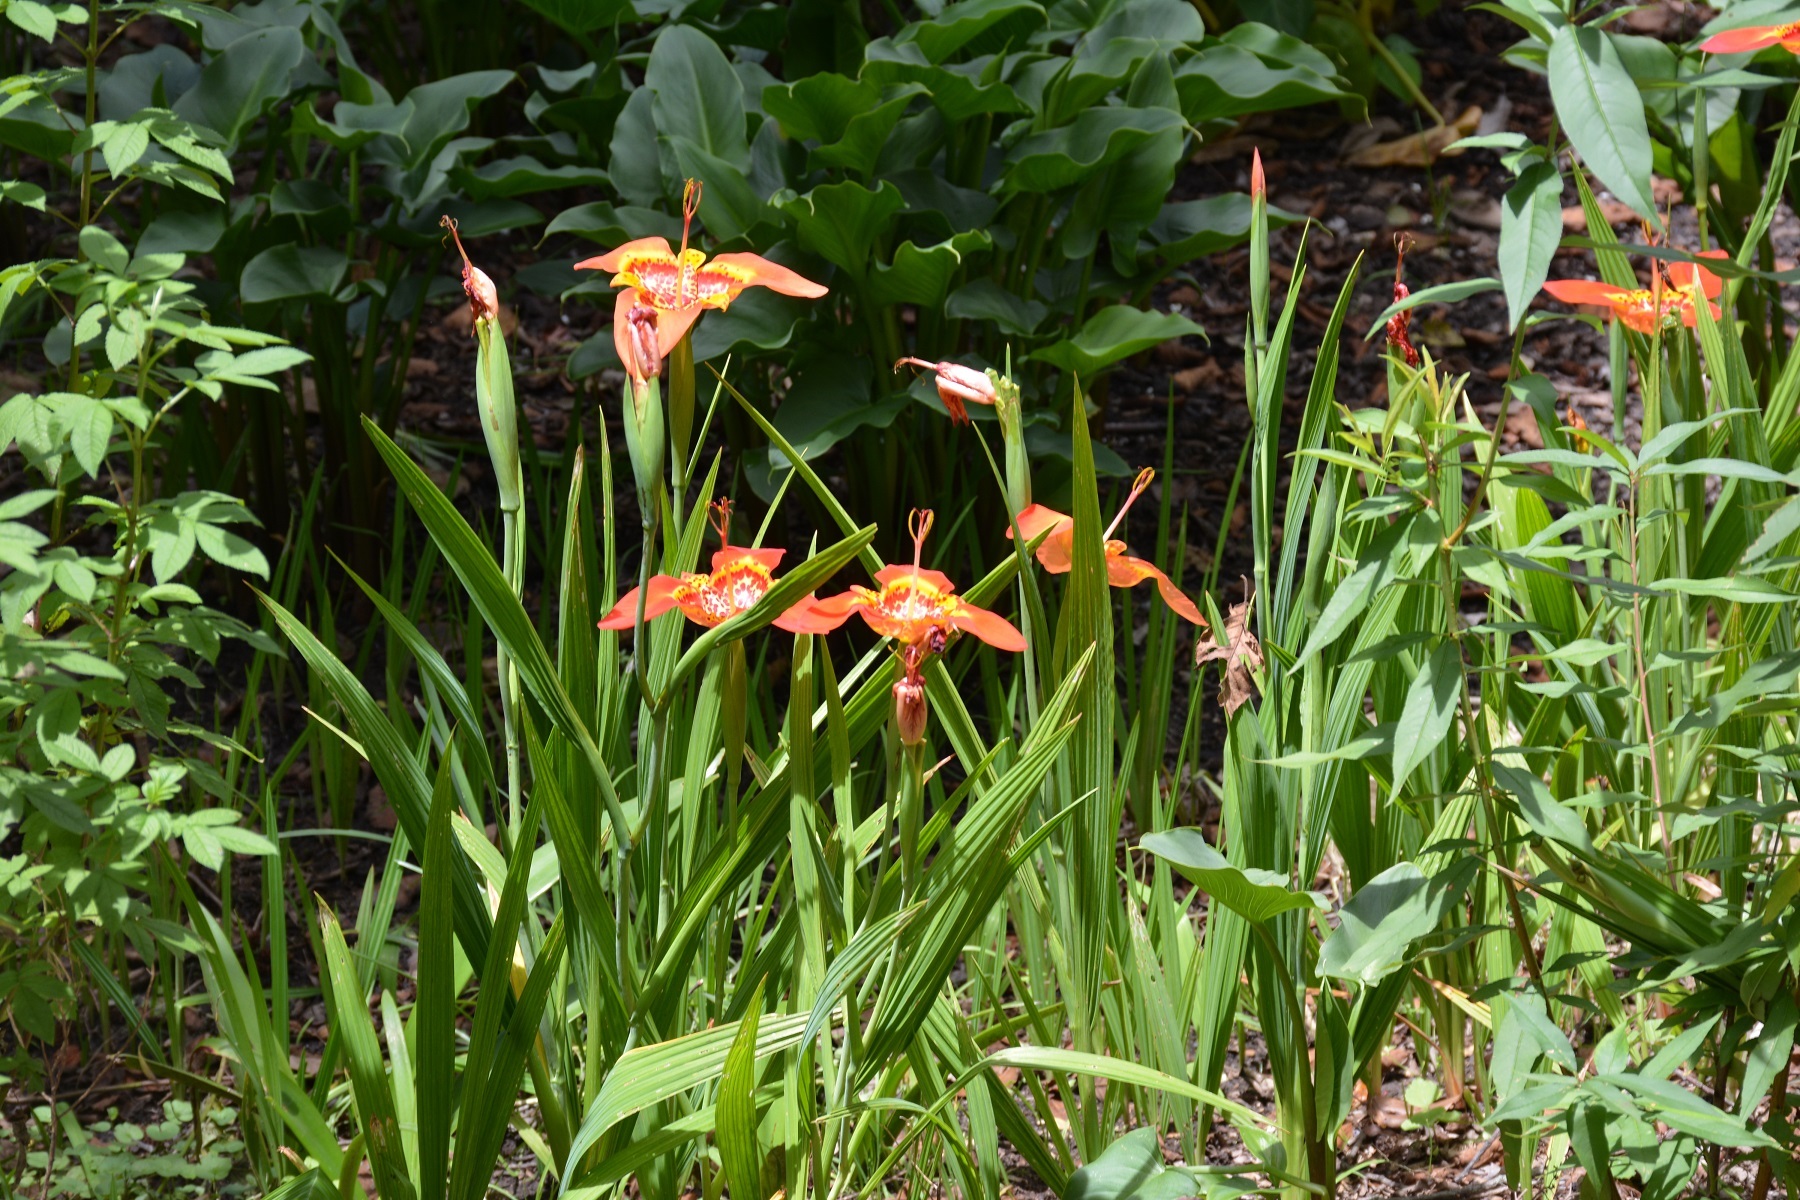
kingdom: Plantae
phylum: Tracheophyta
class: Liliopsida
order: Asparagales
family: Iridaceae
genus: Tigridia
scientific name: Tigridia pavonia
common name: Peacock-flower
